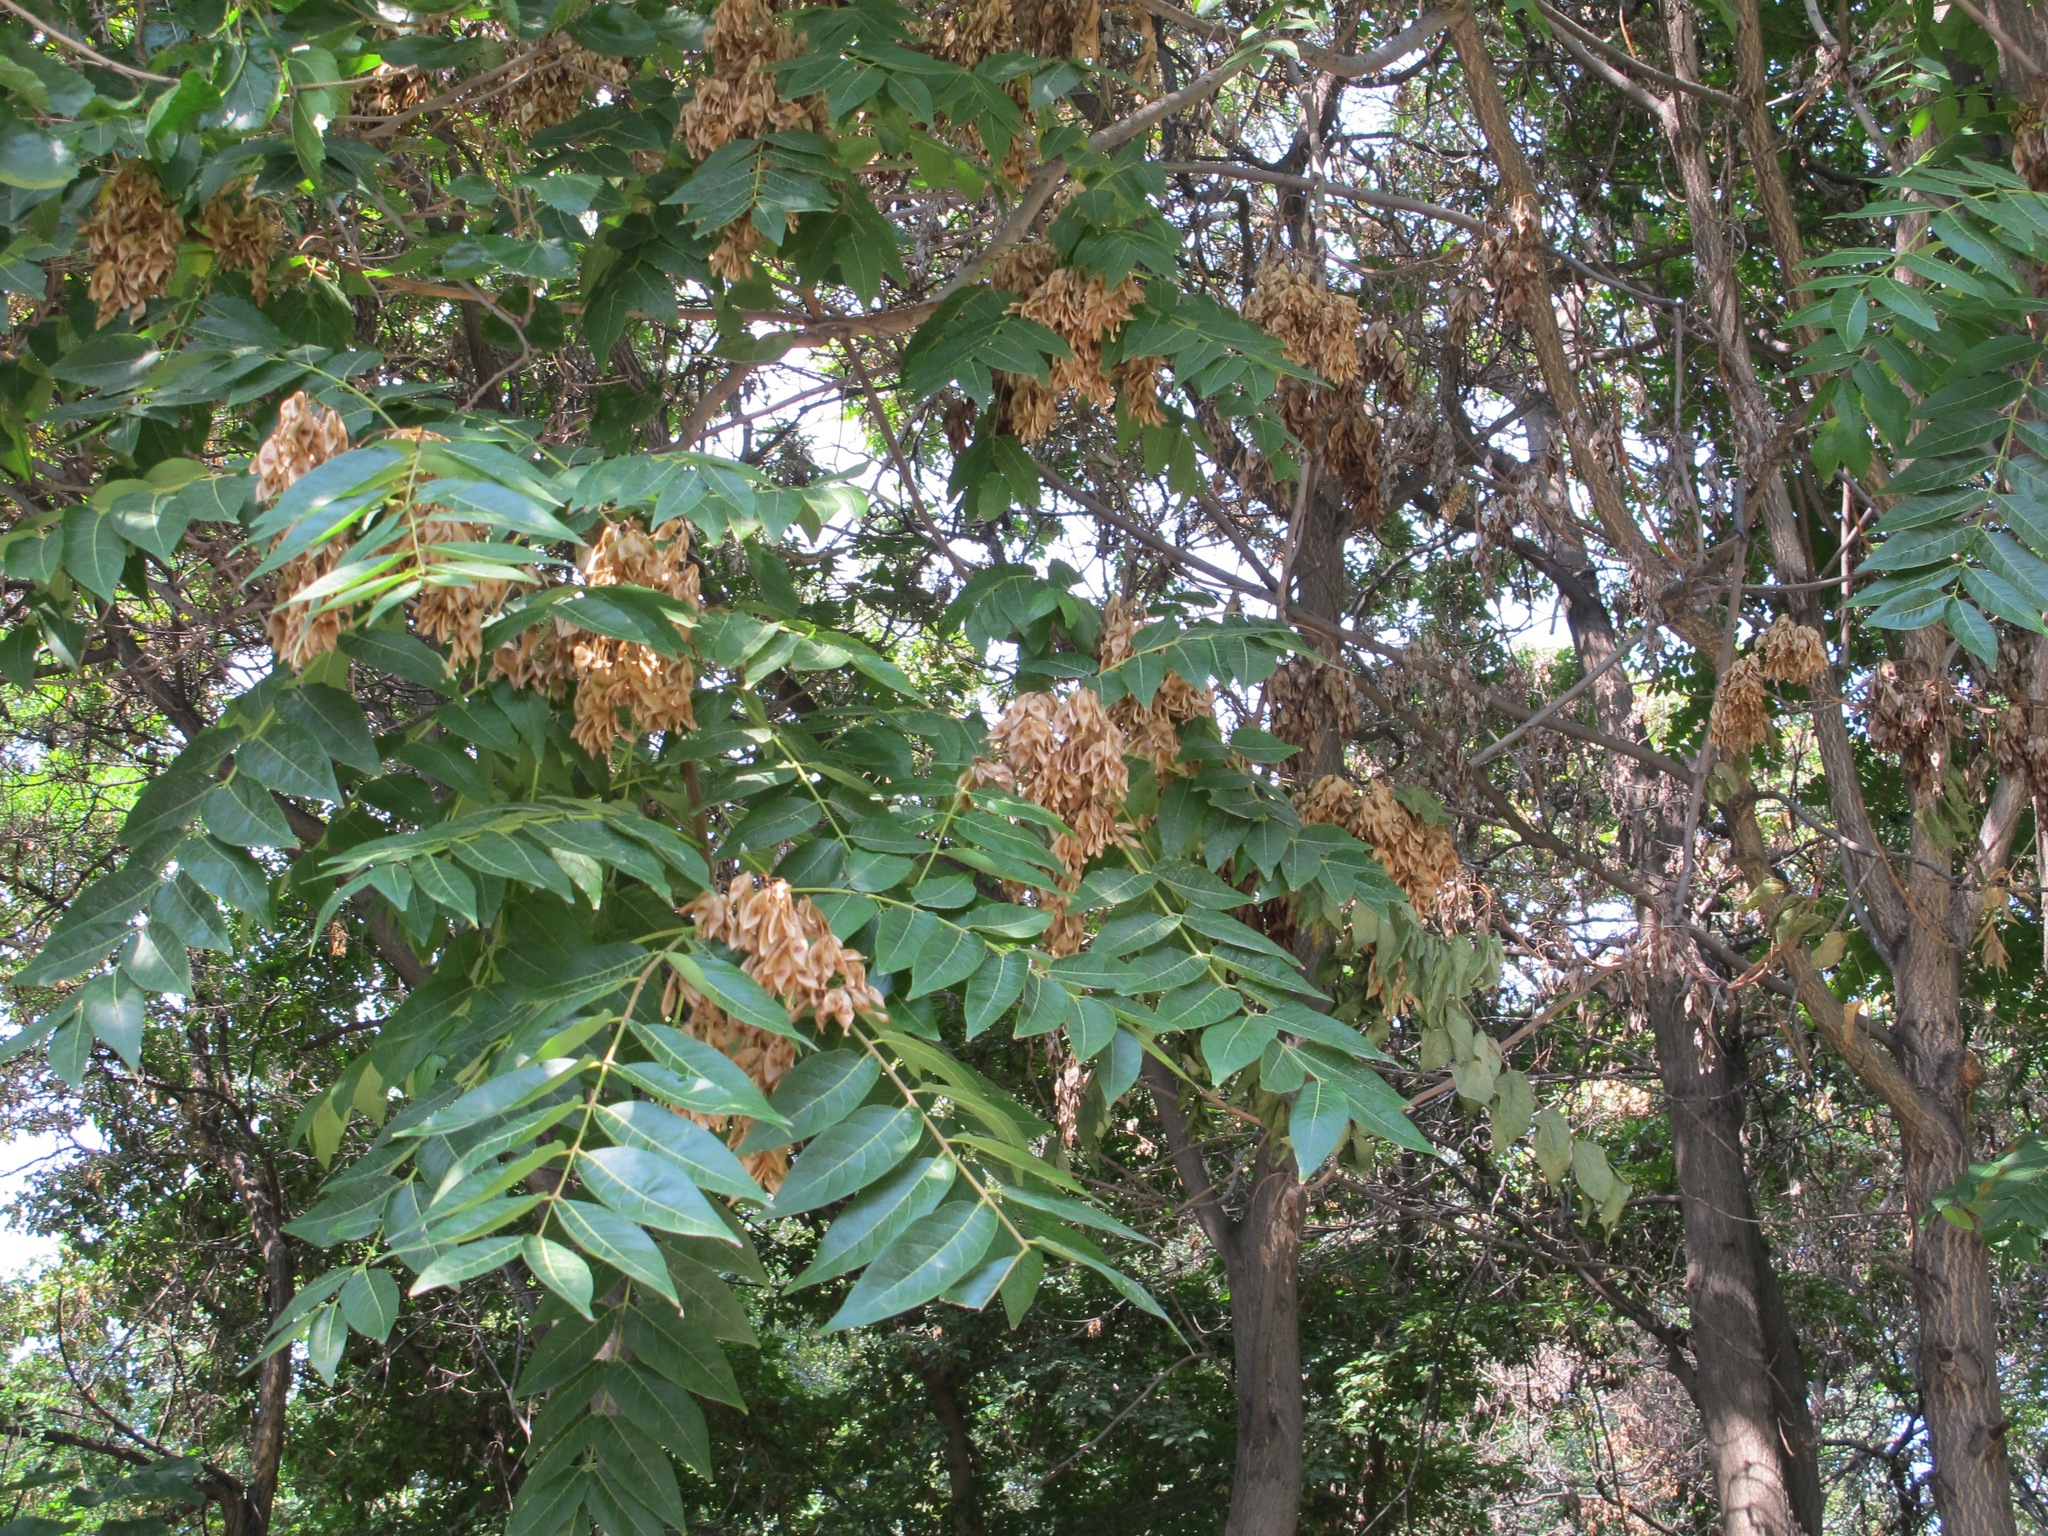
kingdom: Plantae
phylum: Tracheophyta
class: Magnoliopsida
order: Sapindales
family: Simaroubaceae
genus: Ailanthus
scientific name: Ailanthus altissima
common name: Tree-of-heaven
